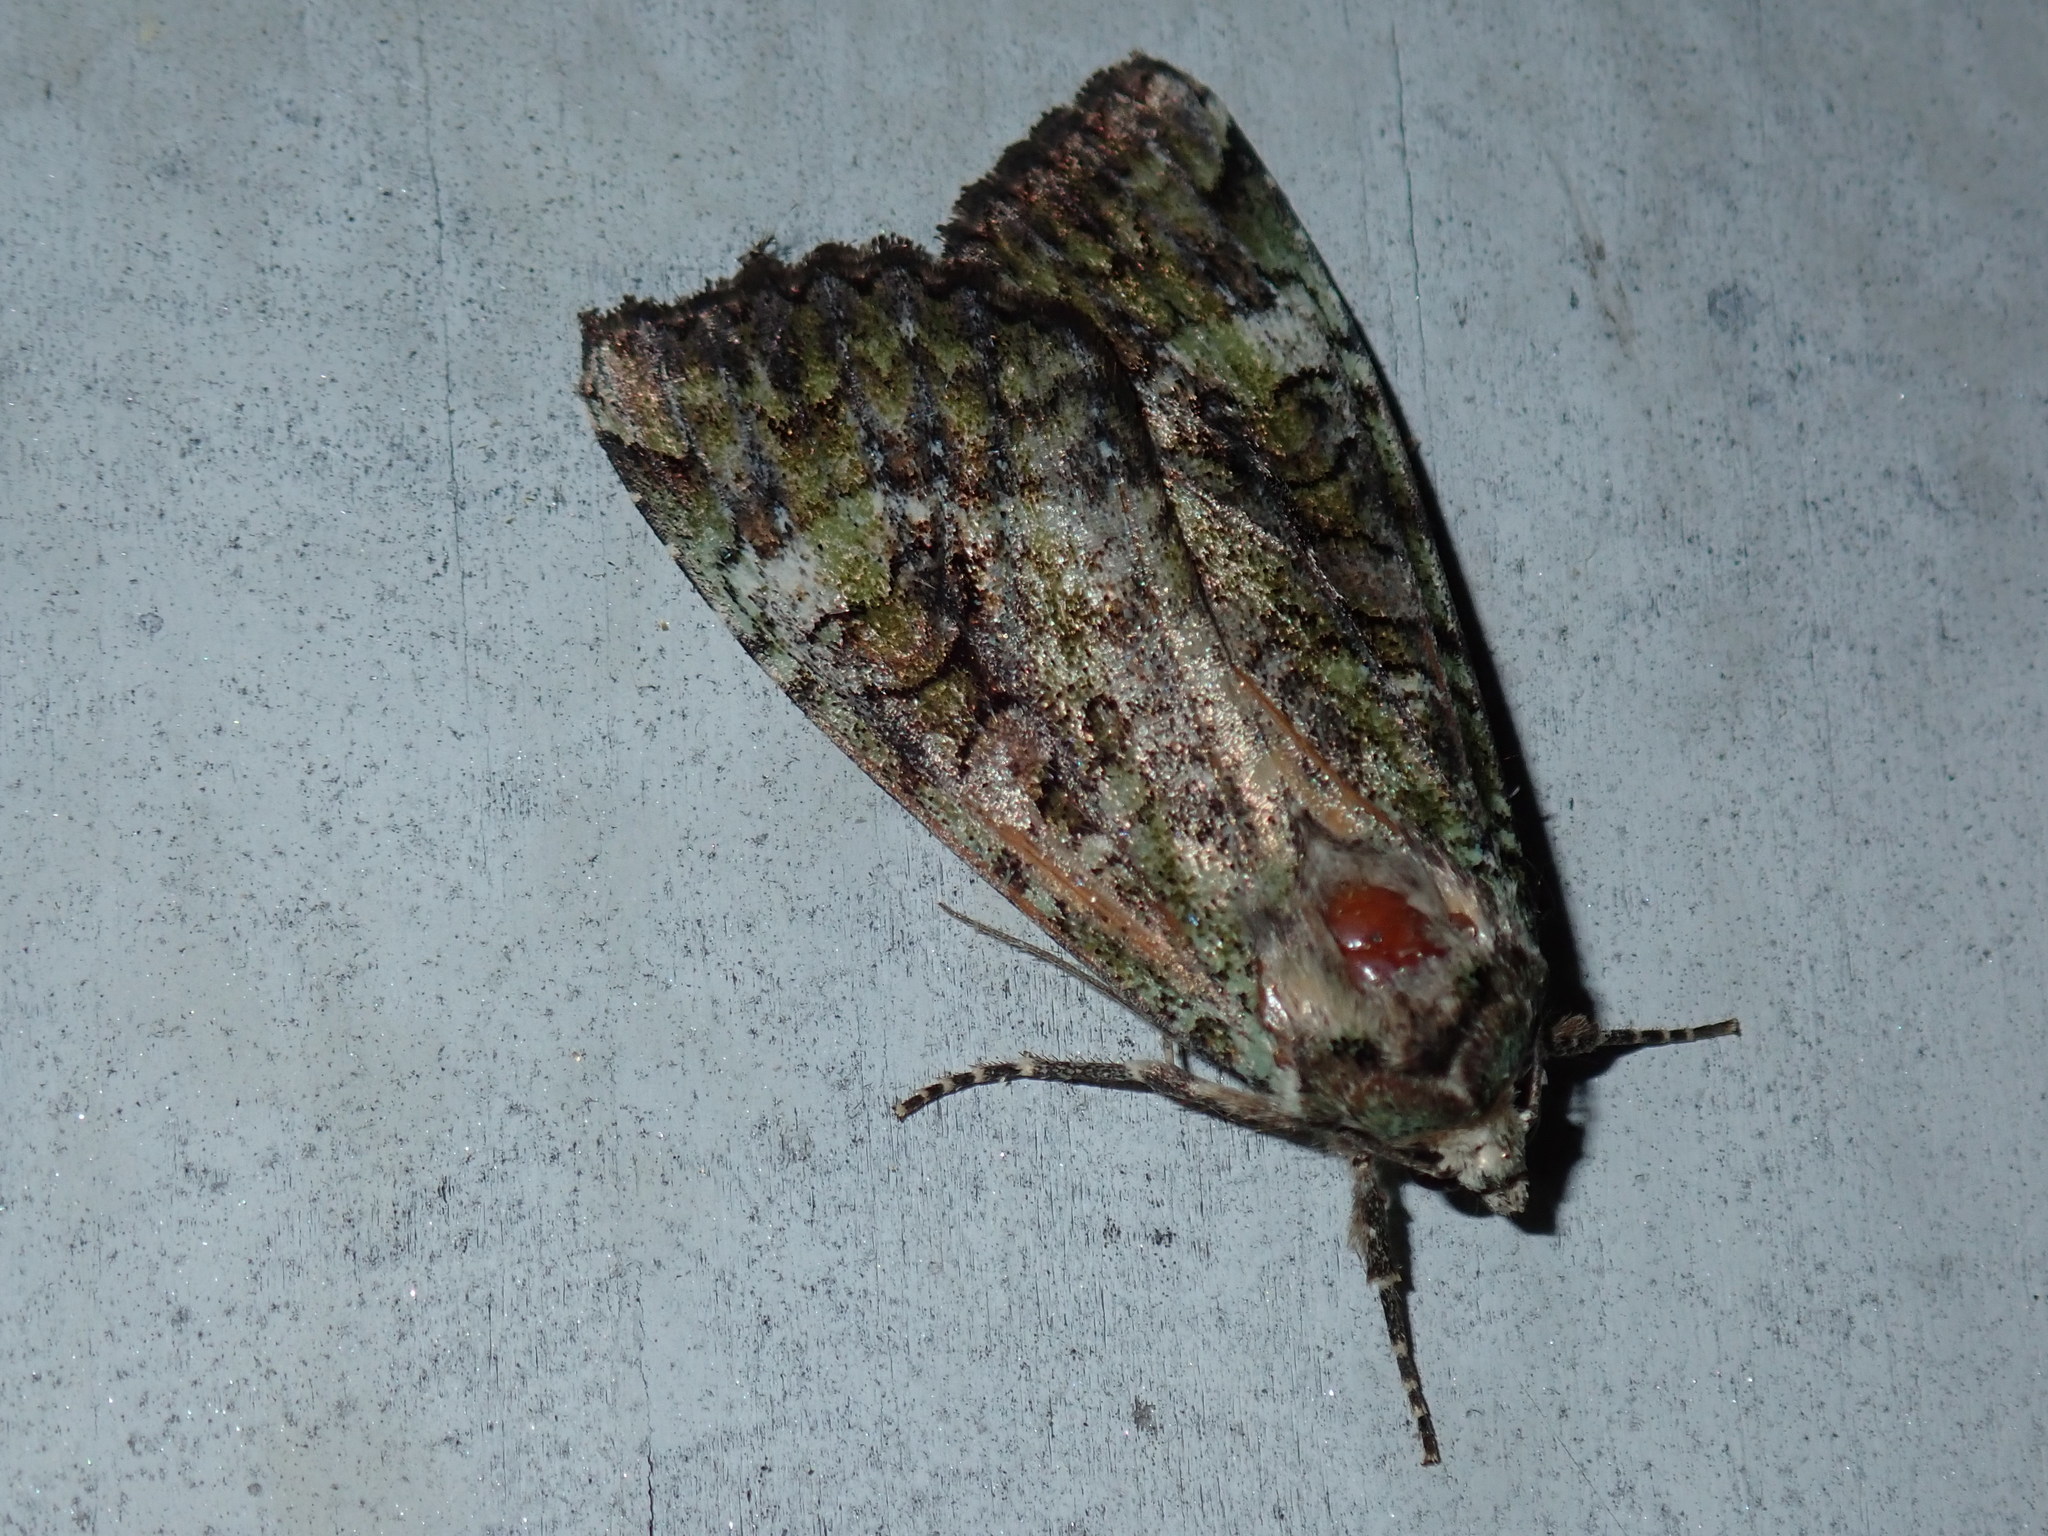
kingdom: Animalia
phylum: Arthropoda
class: Insecta
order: Lepidoptera
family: Noctuidae
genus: Anaplectoides
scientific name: Anaplectoides prasina
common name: Green arches
